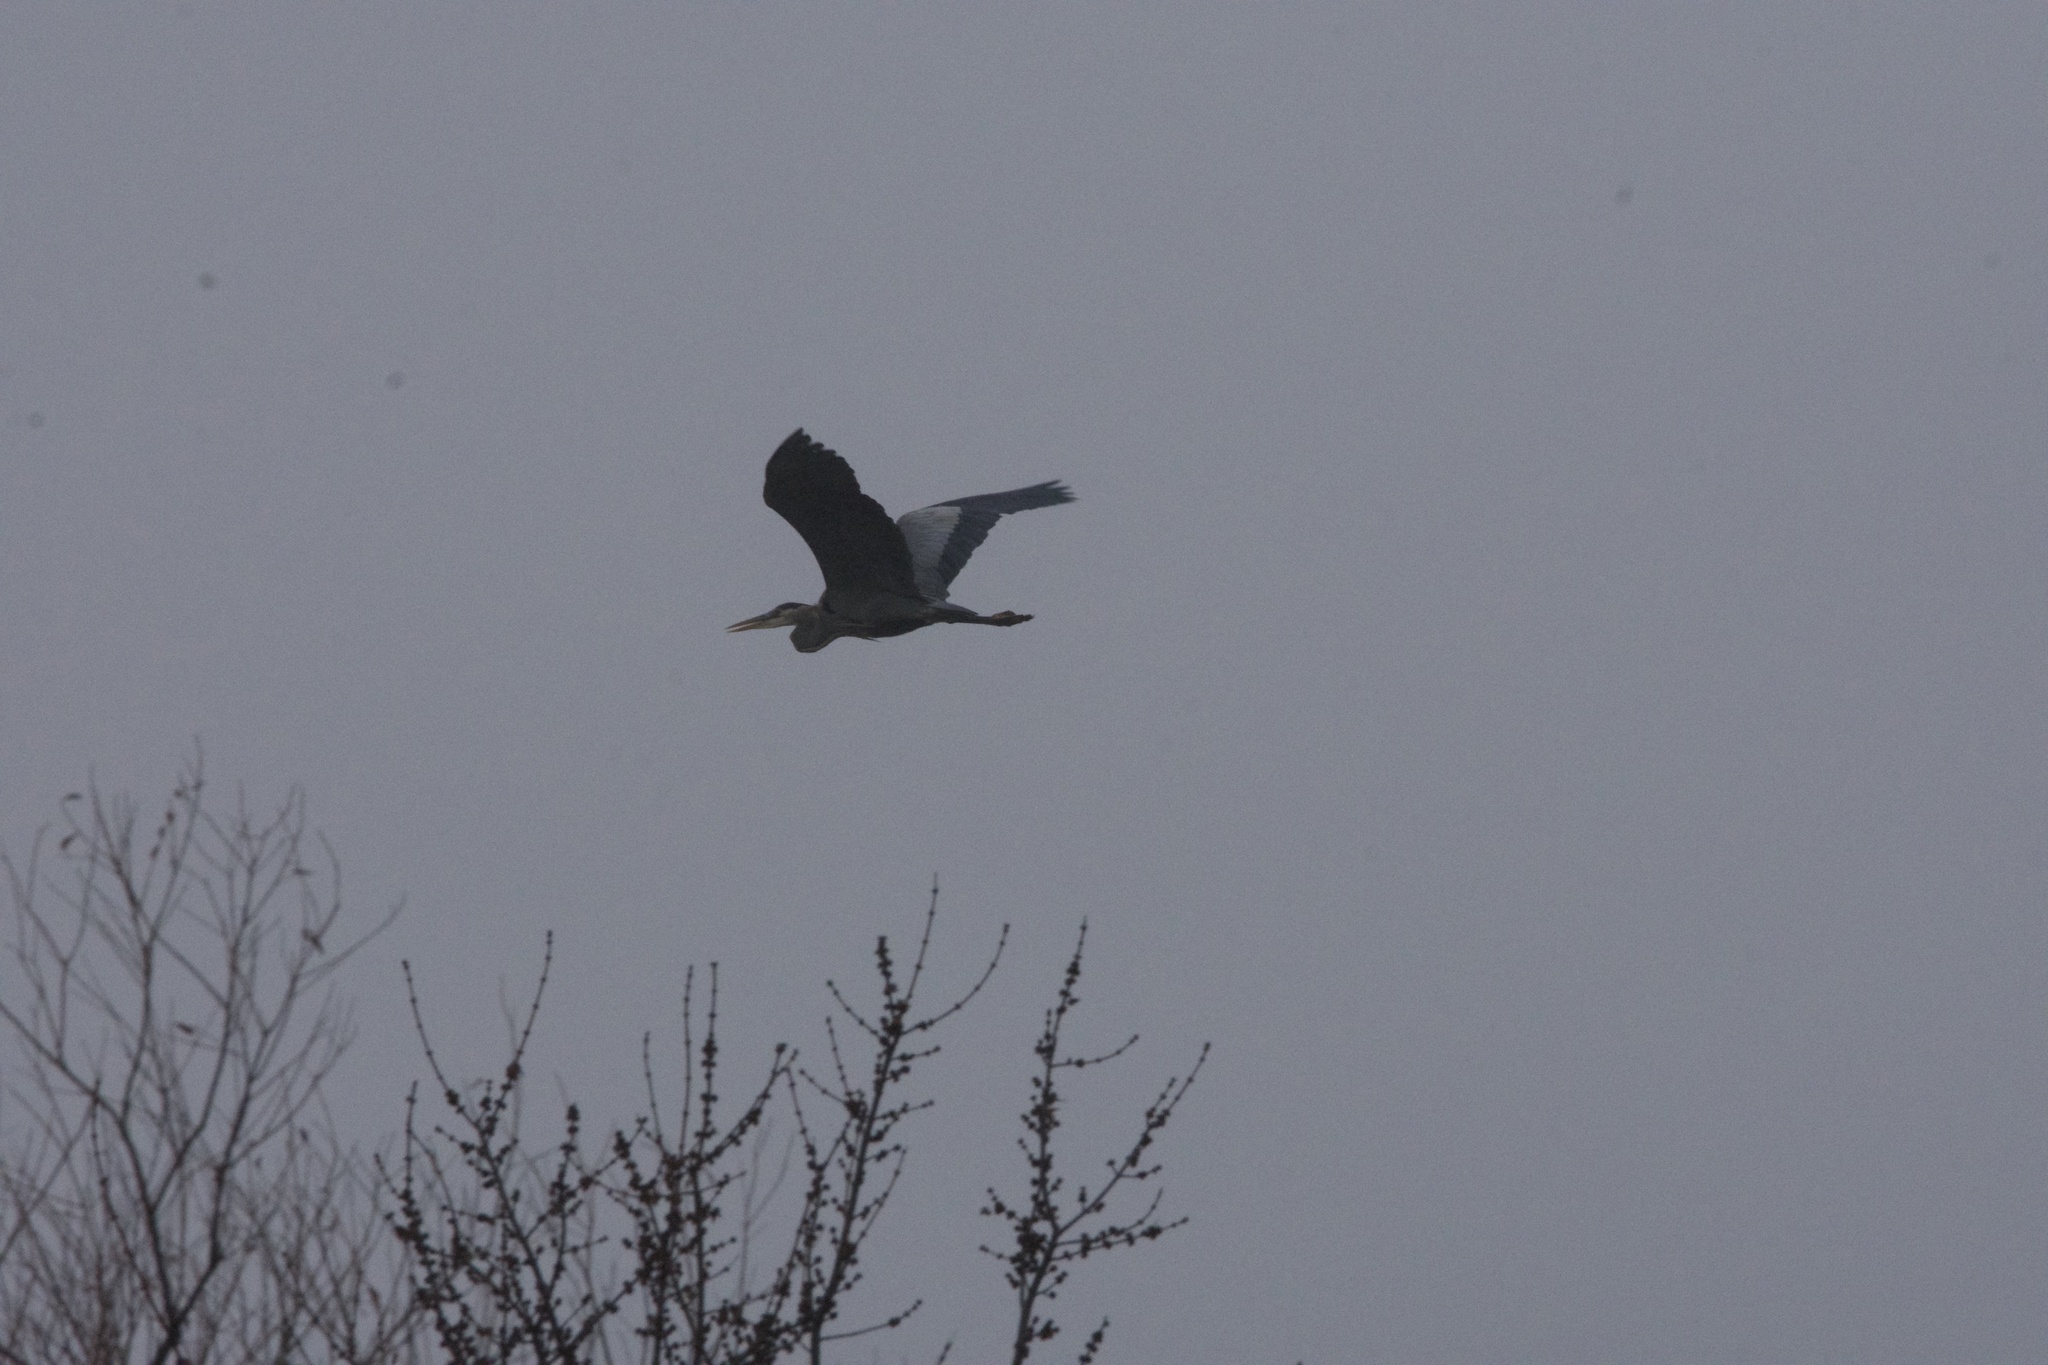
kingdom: Animalia
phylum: Chordata
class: Aves
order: Pelecaniformes
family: Ardeidae
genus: Ardea
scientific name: Ardea herodias
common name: Great blue heron
